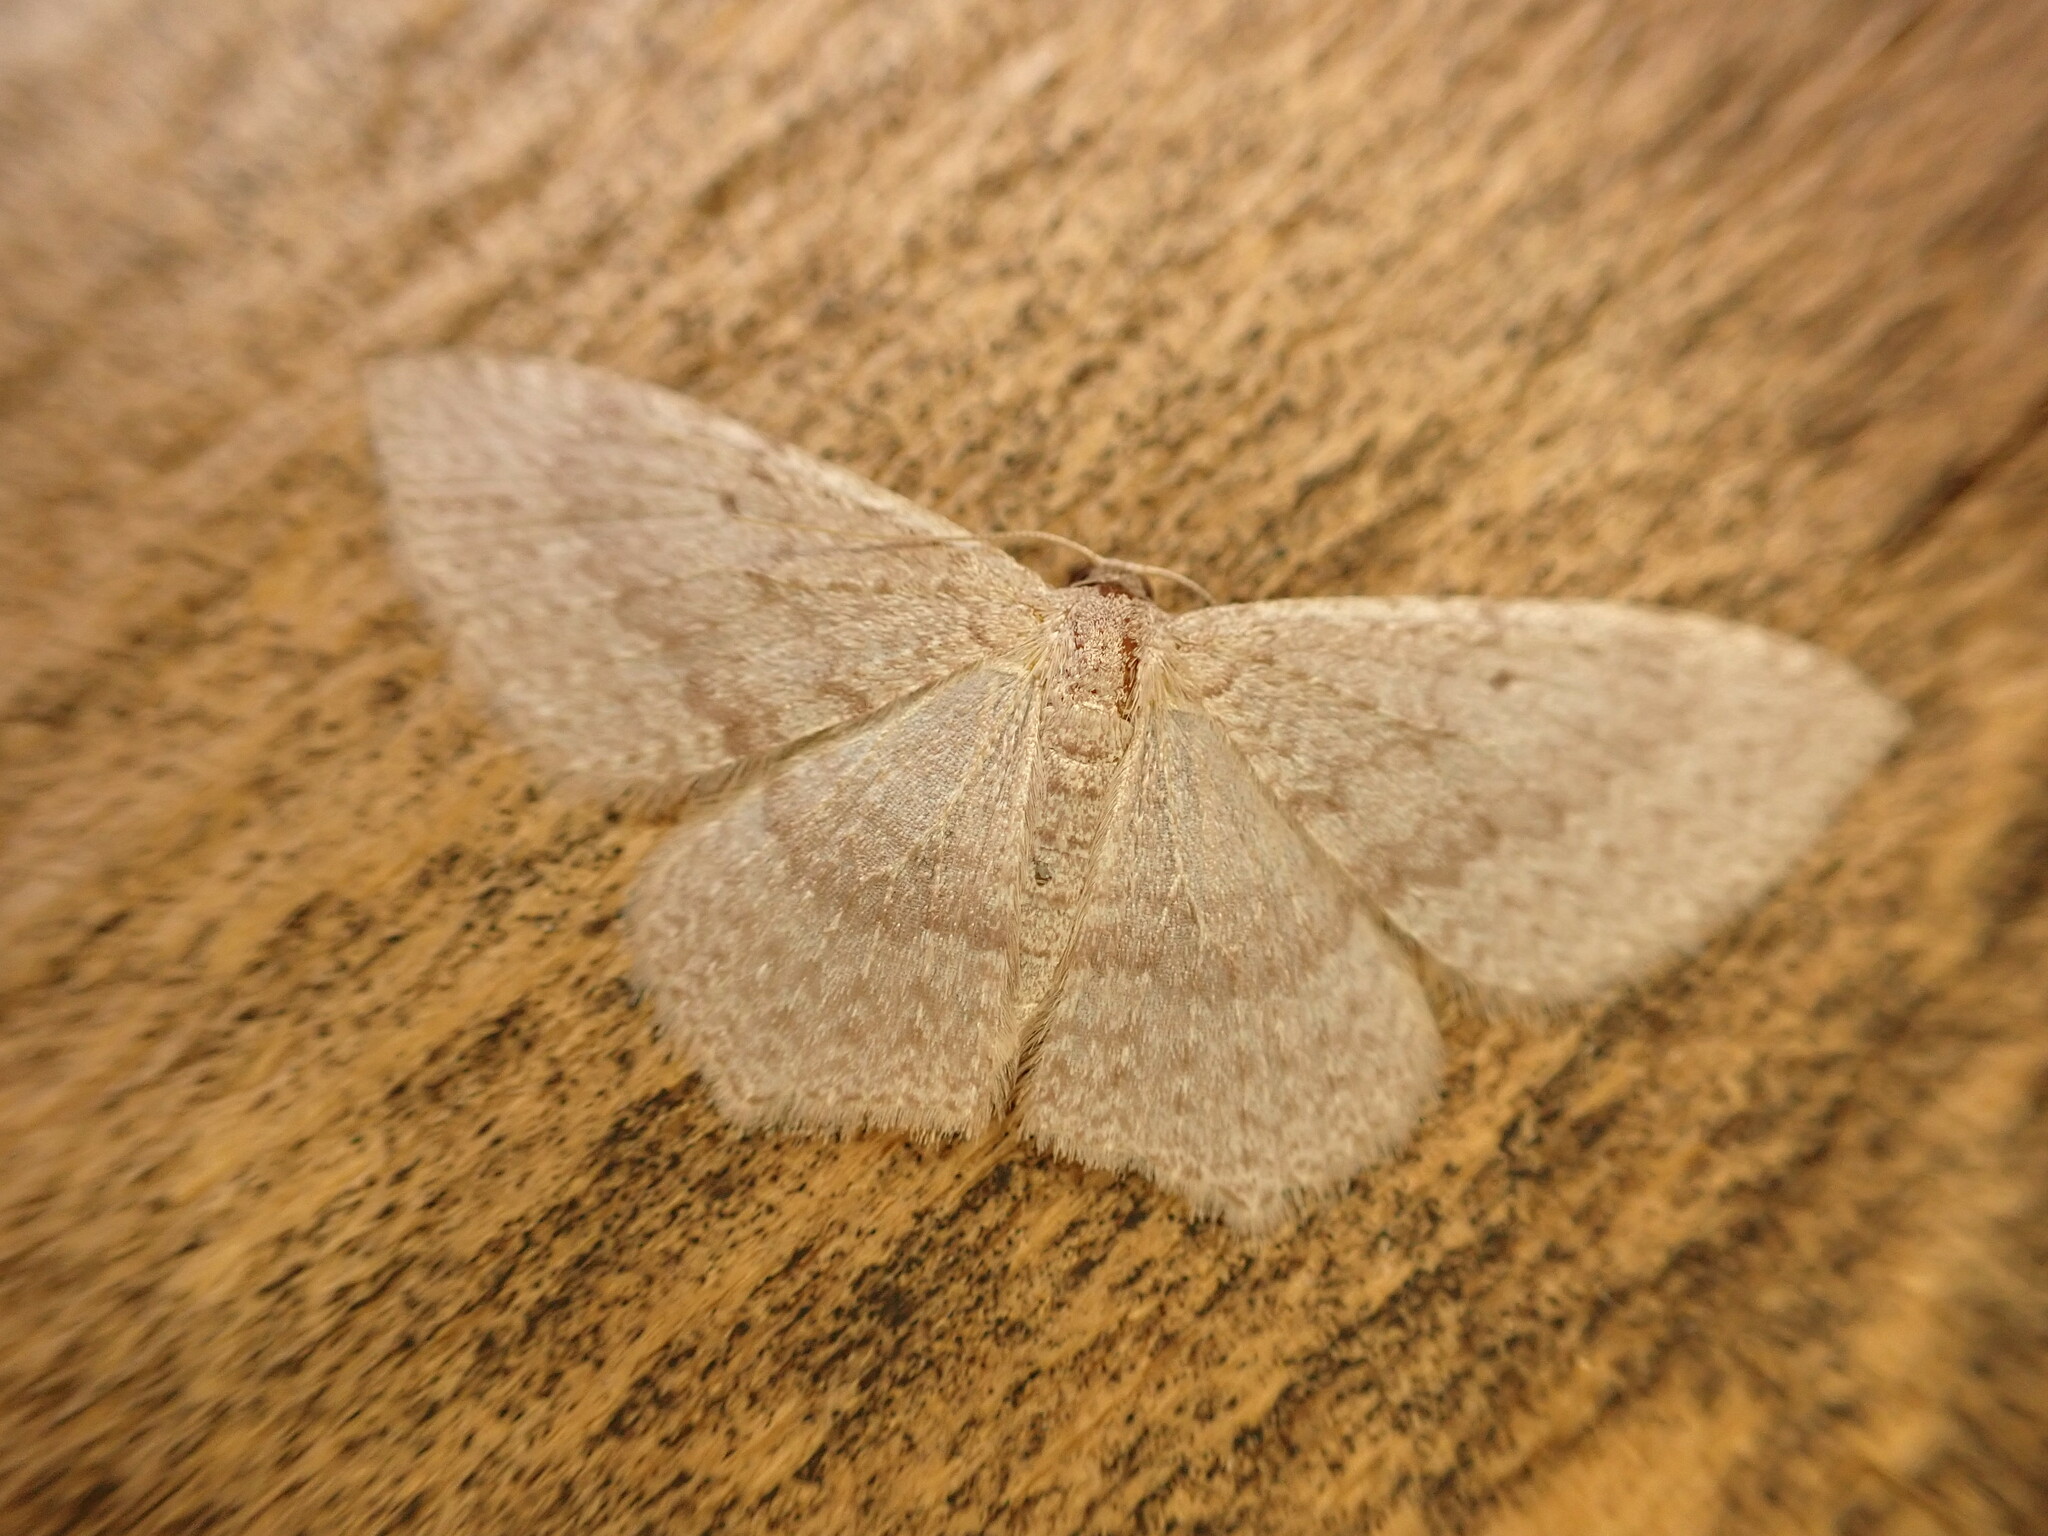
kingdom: Animalia
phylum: Arthropoda
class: Insecta
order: Lepidoptera
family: Geometridae
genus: Poecilasthena
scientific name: Poecilasthena schistaria
